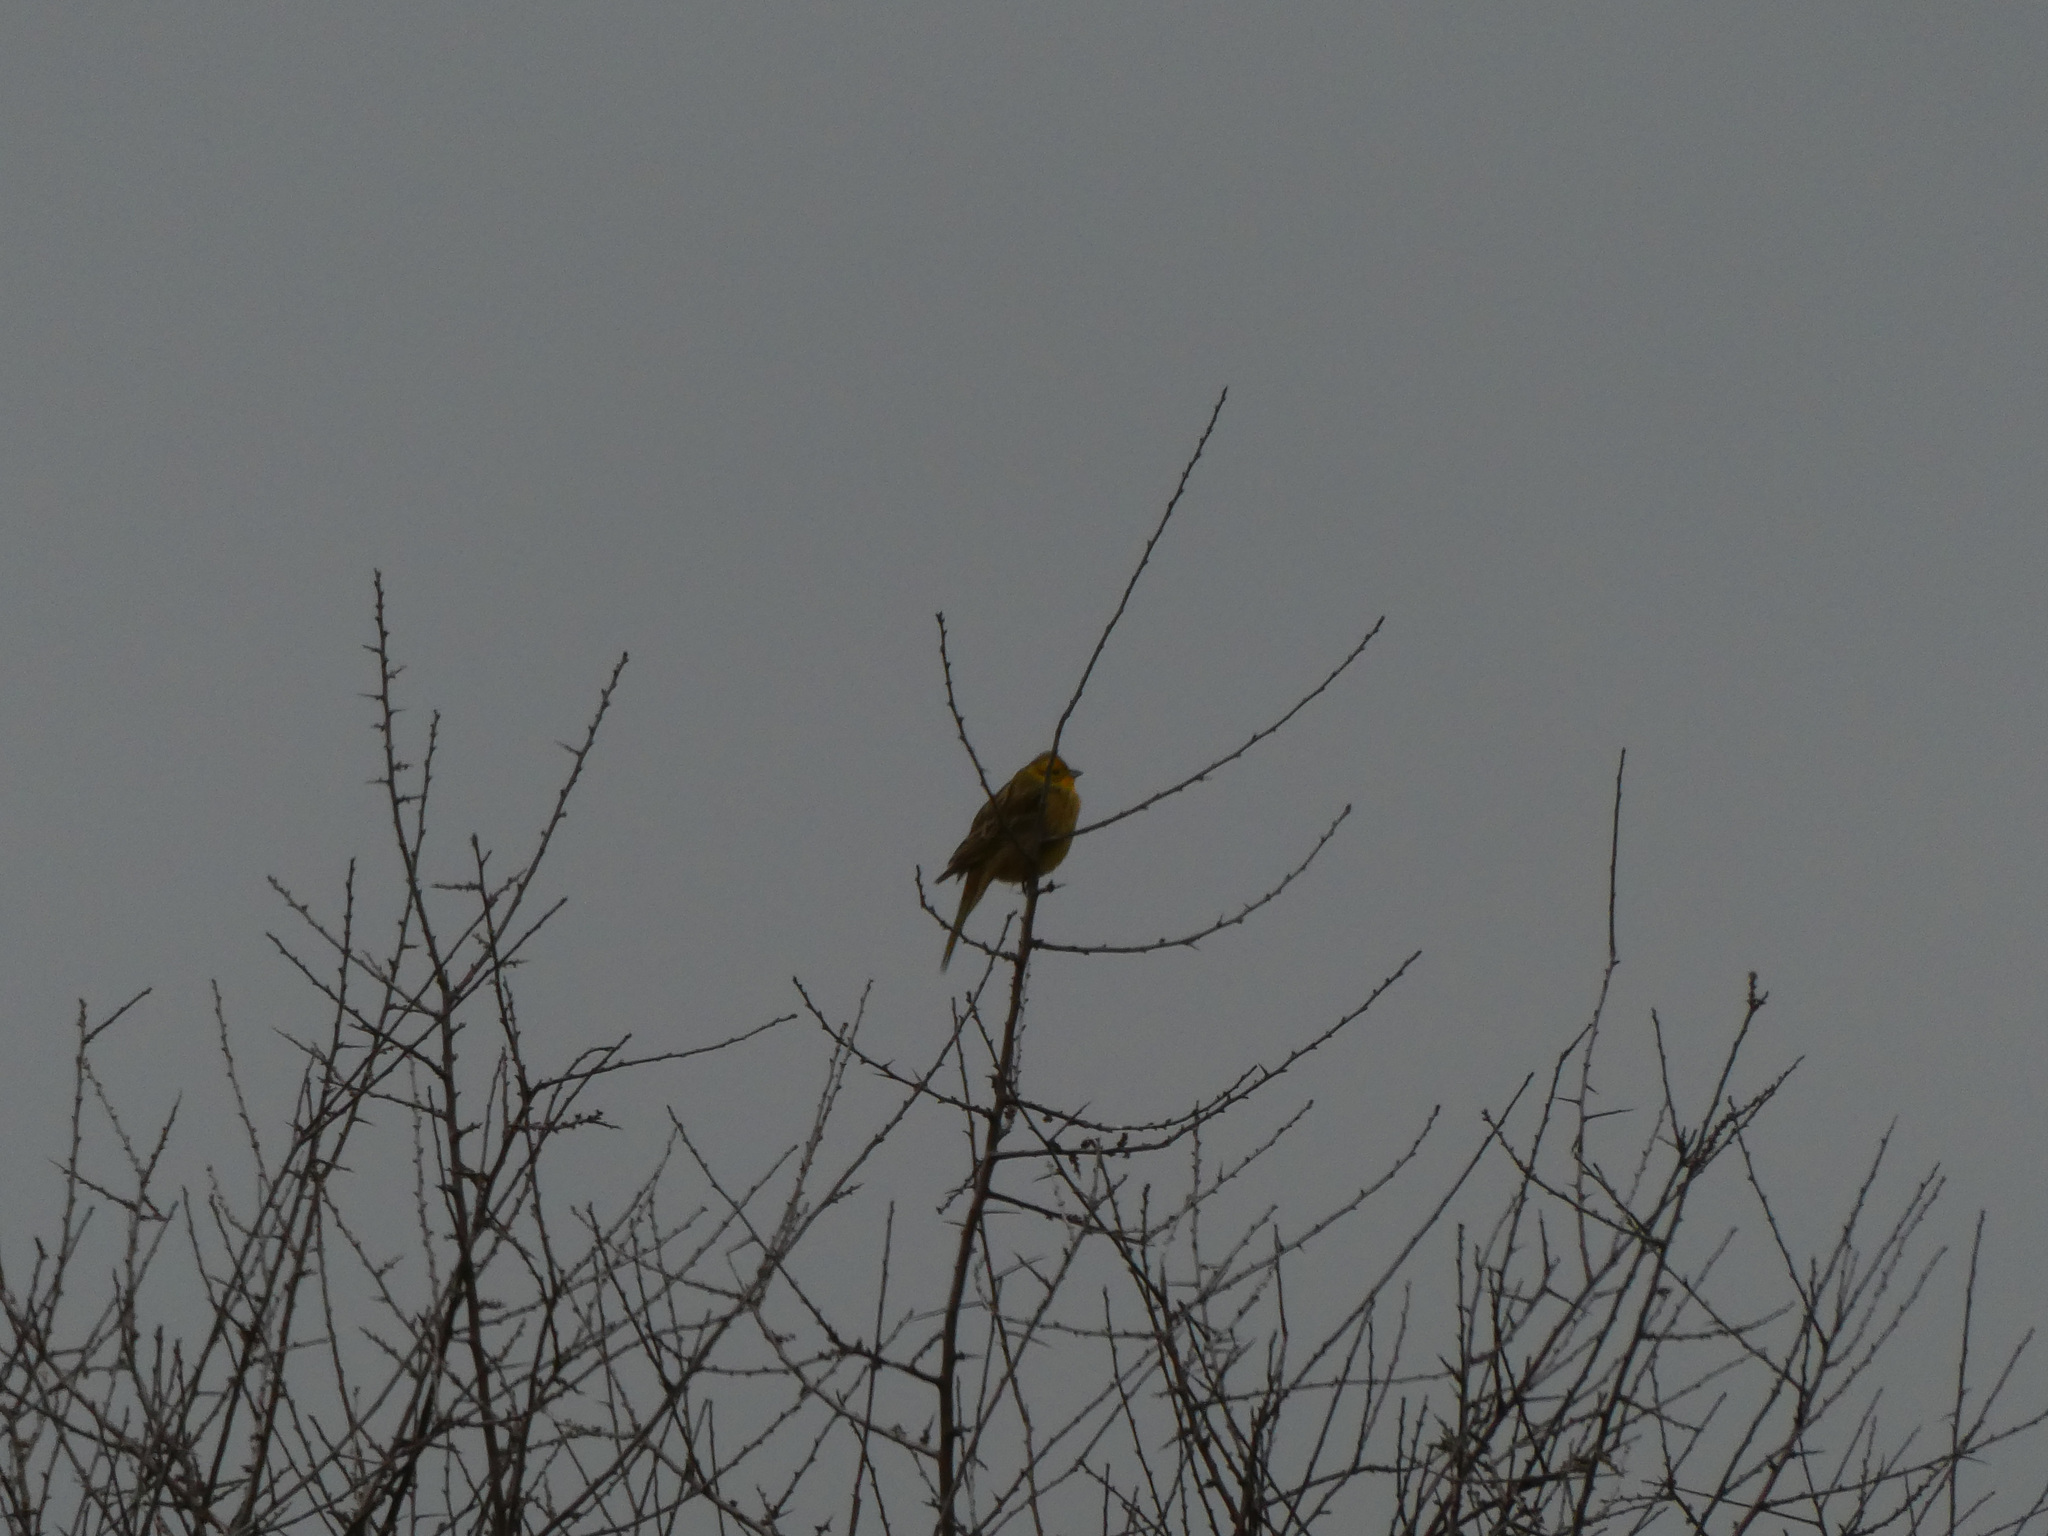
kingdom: Animalia
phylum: Chordata
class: Aves
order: Passeriformes
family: Emberizidae
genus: Emberiza
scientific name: Emberiza citrinella
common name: Yellowhammer
